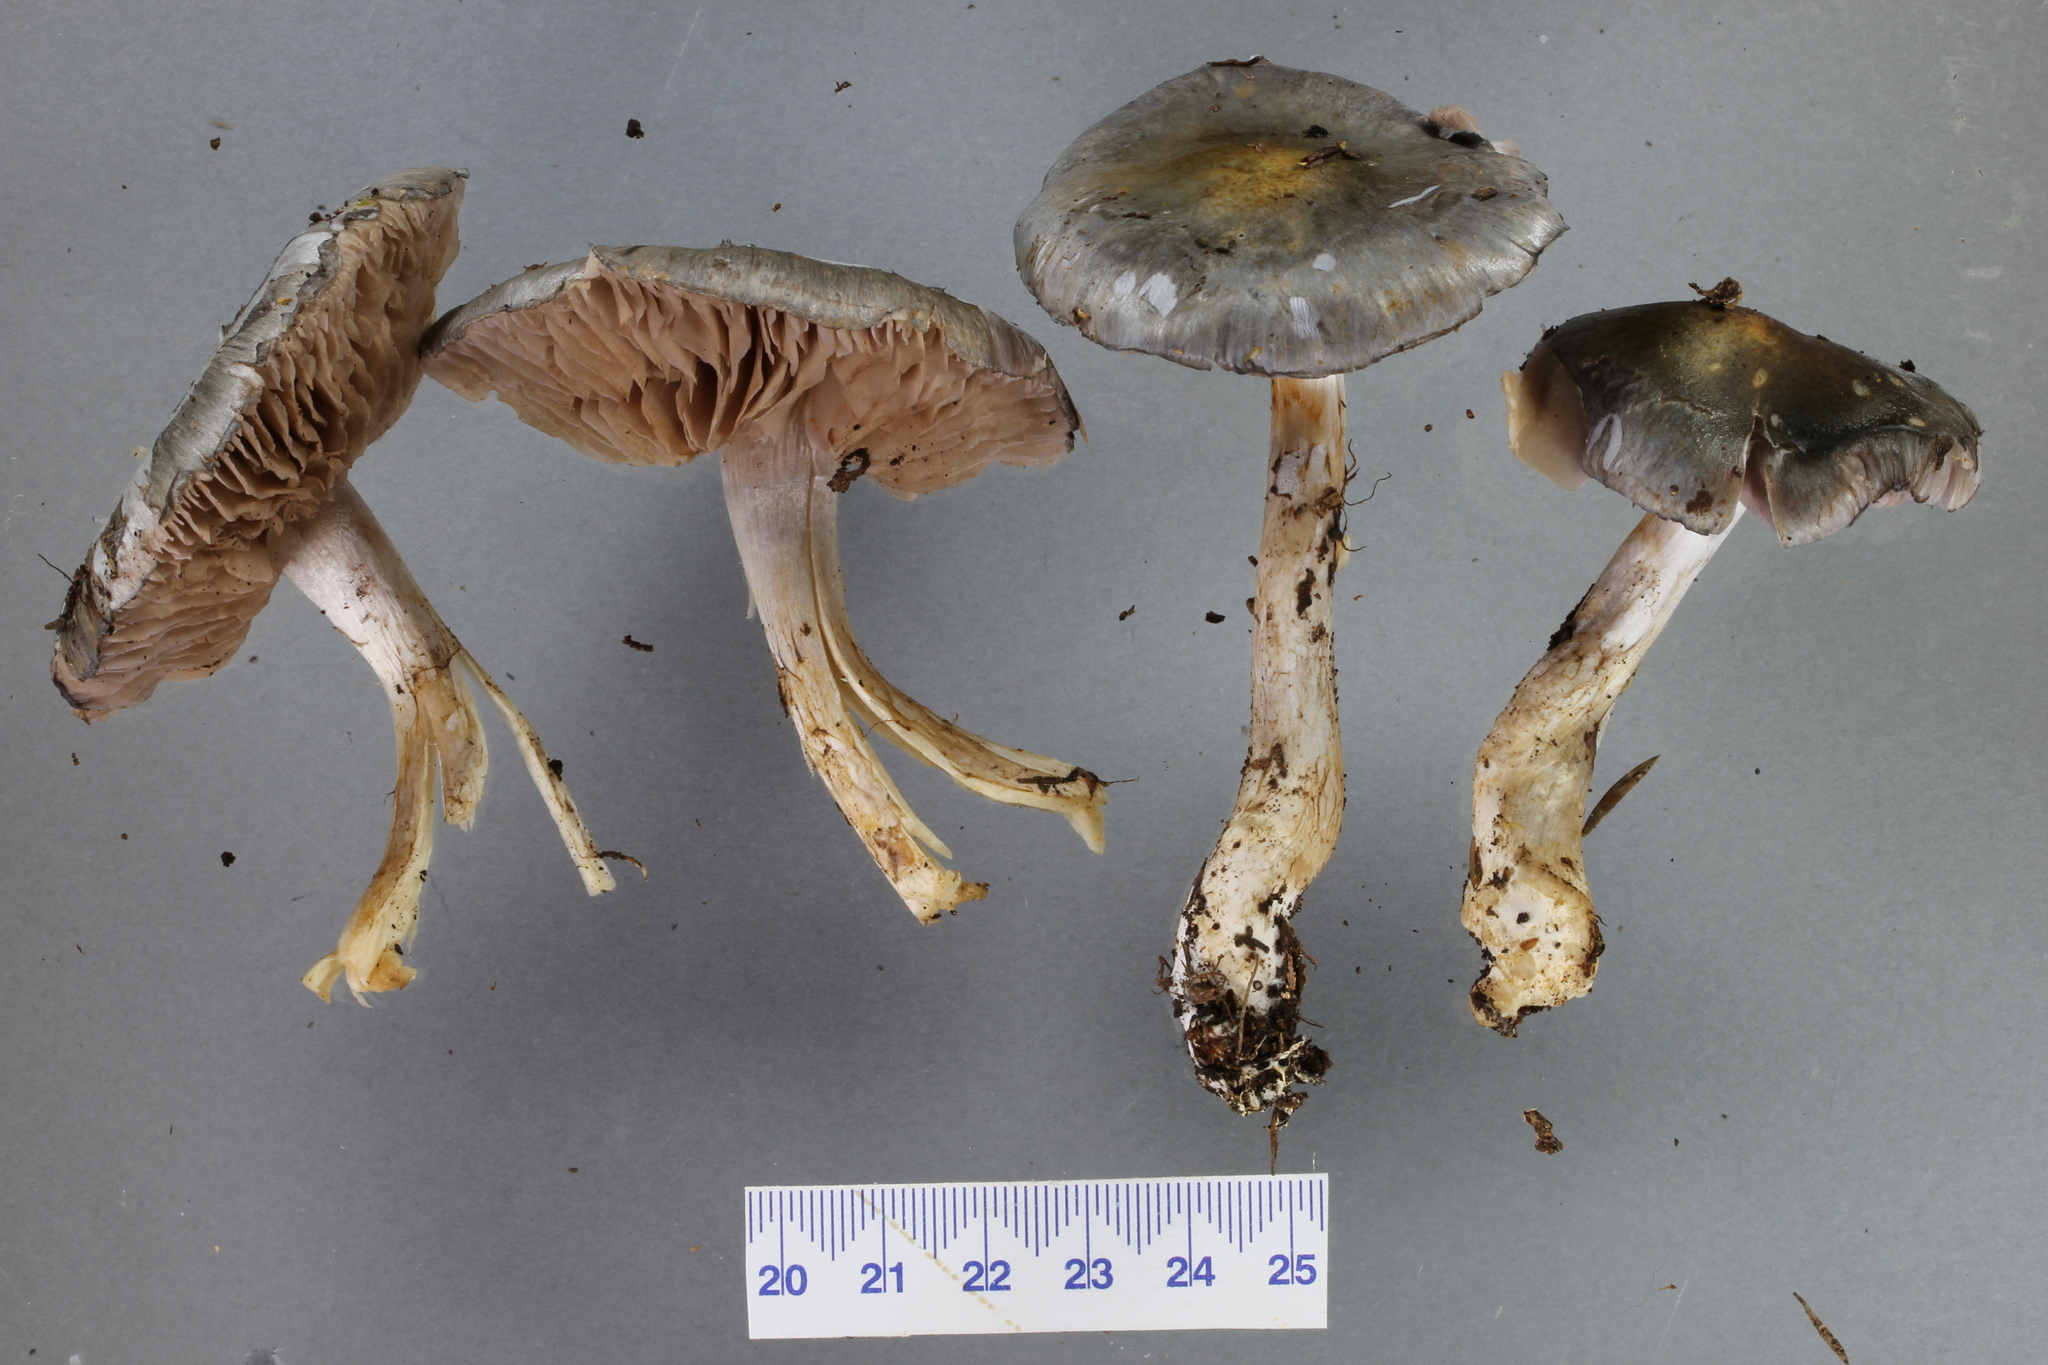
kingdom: Fungi
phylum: Basidiomycota
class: Agaricomycetes
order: Agaricales
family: Cortinariaceae
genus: Cortinarius
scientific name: Cortinarius rotundisporus
